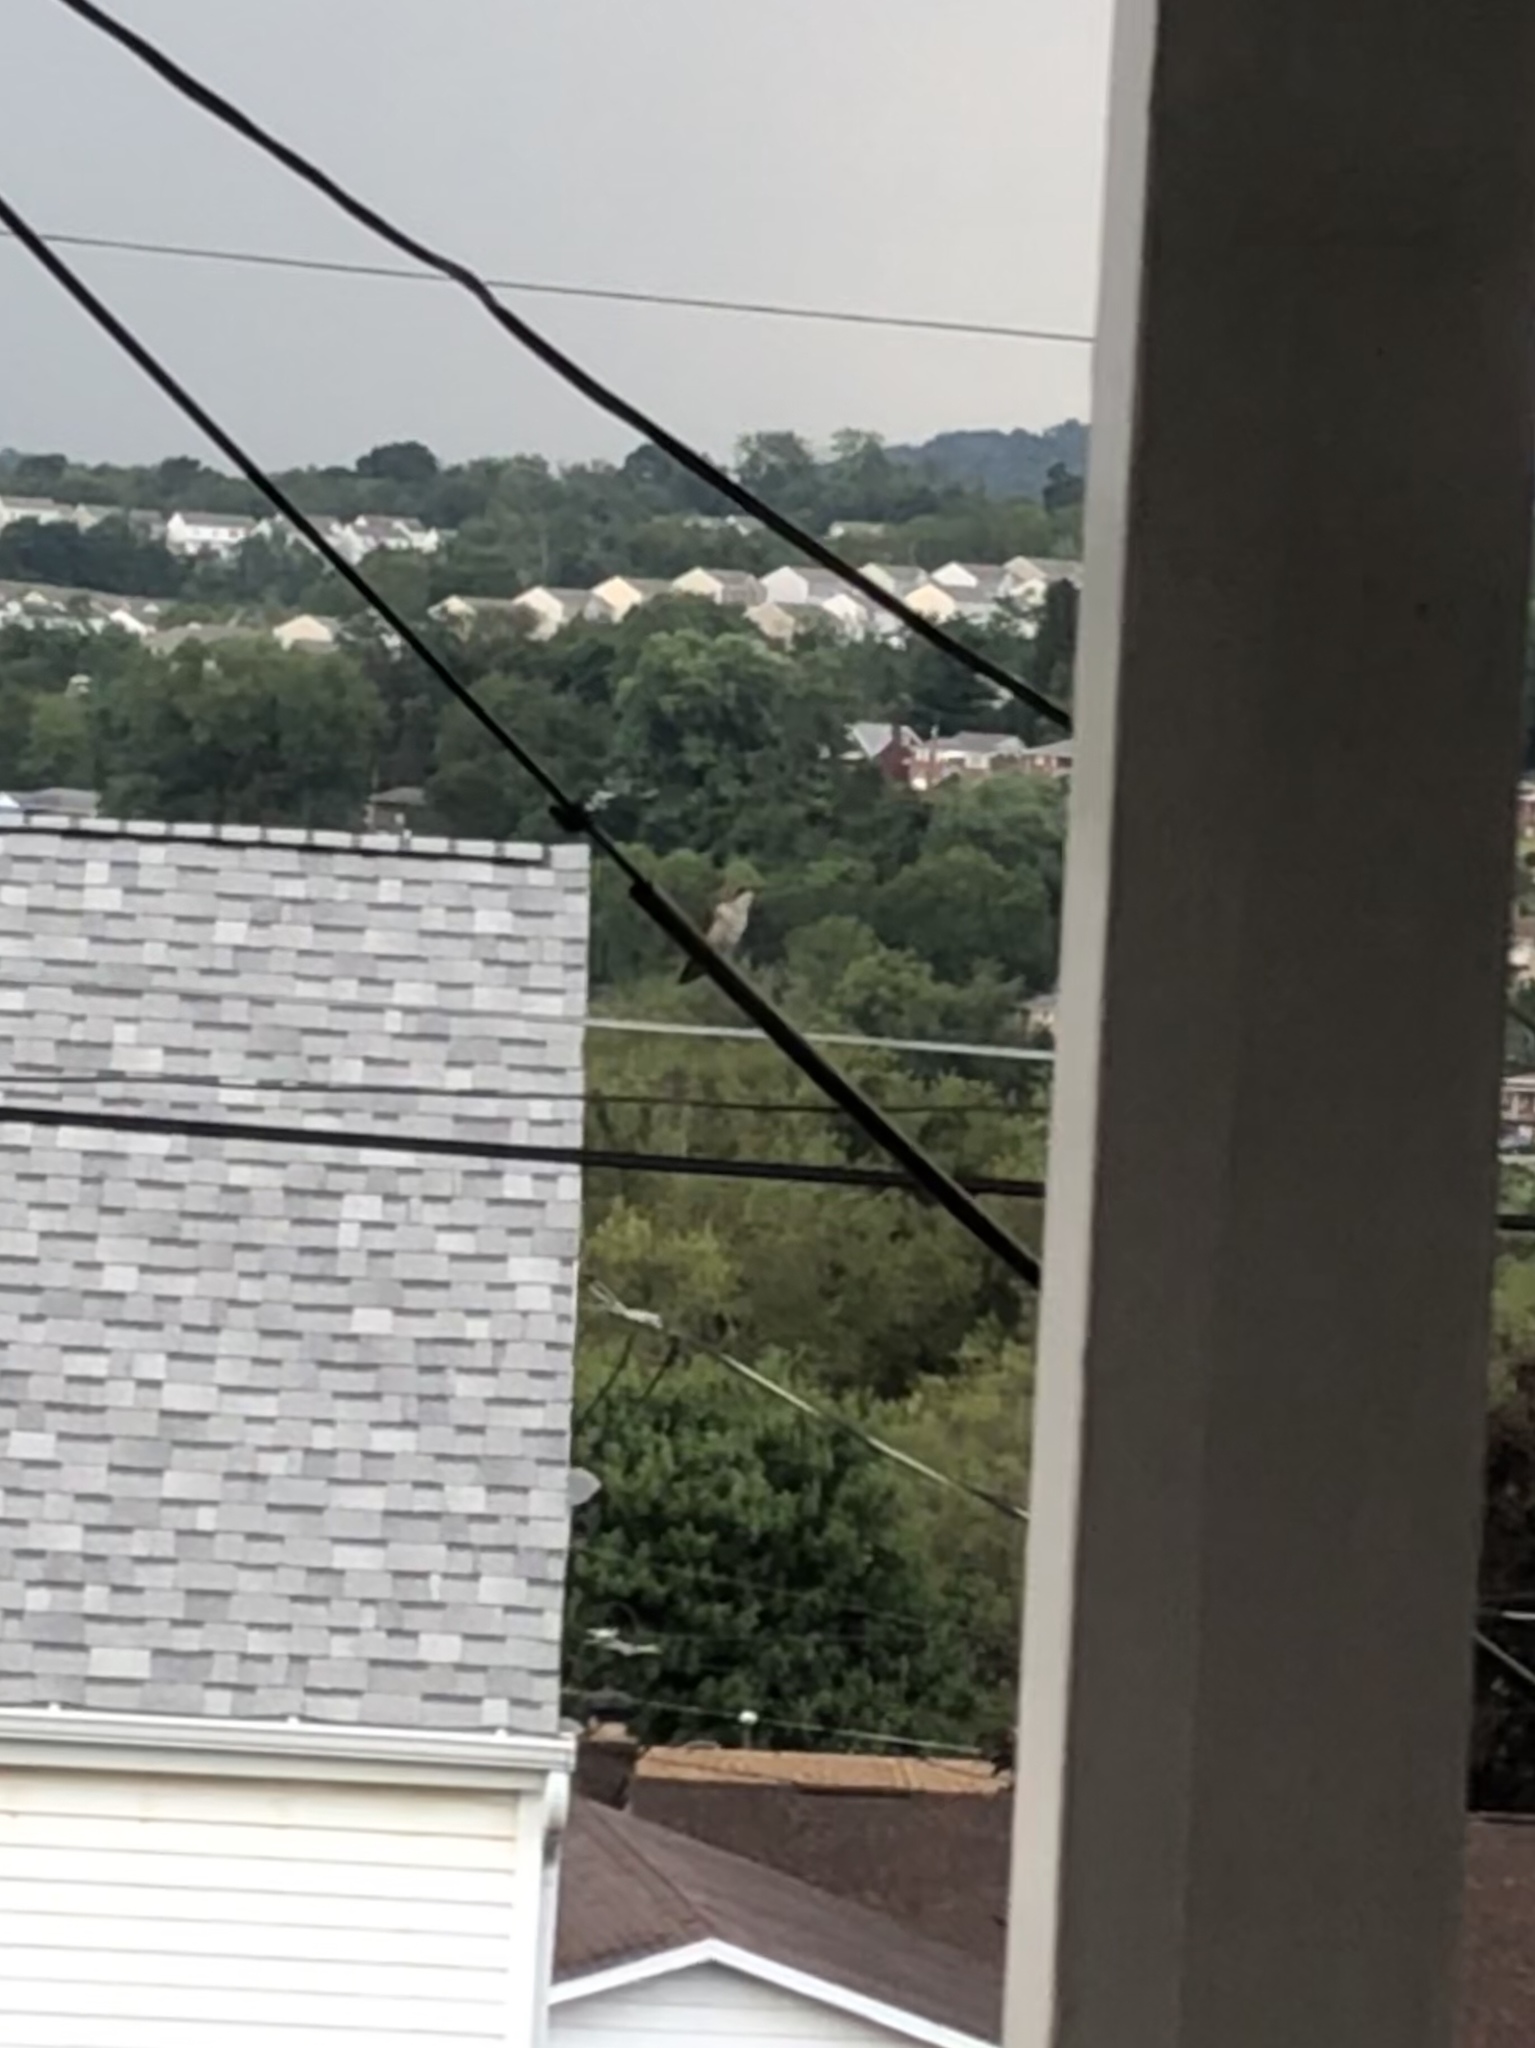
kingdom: Animalia
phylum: Chordata
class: Aves
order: Apodiformes
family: Trochilidae
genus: Archilochus
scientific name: Archilochus colubris
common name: Ruby-throated hummingbird
